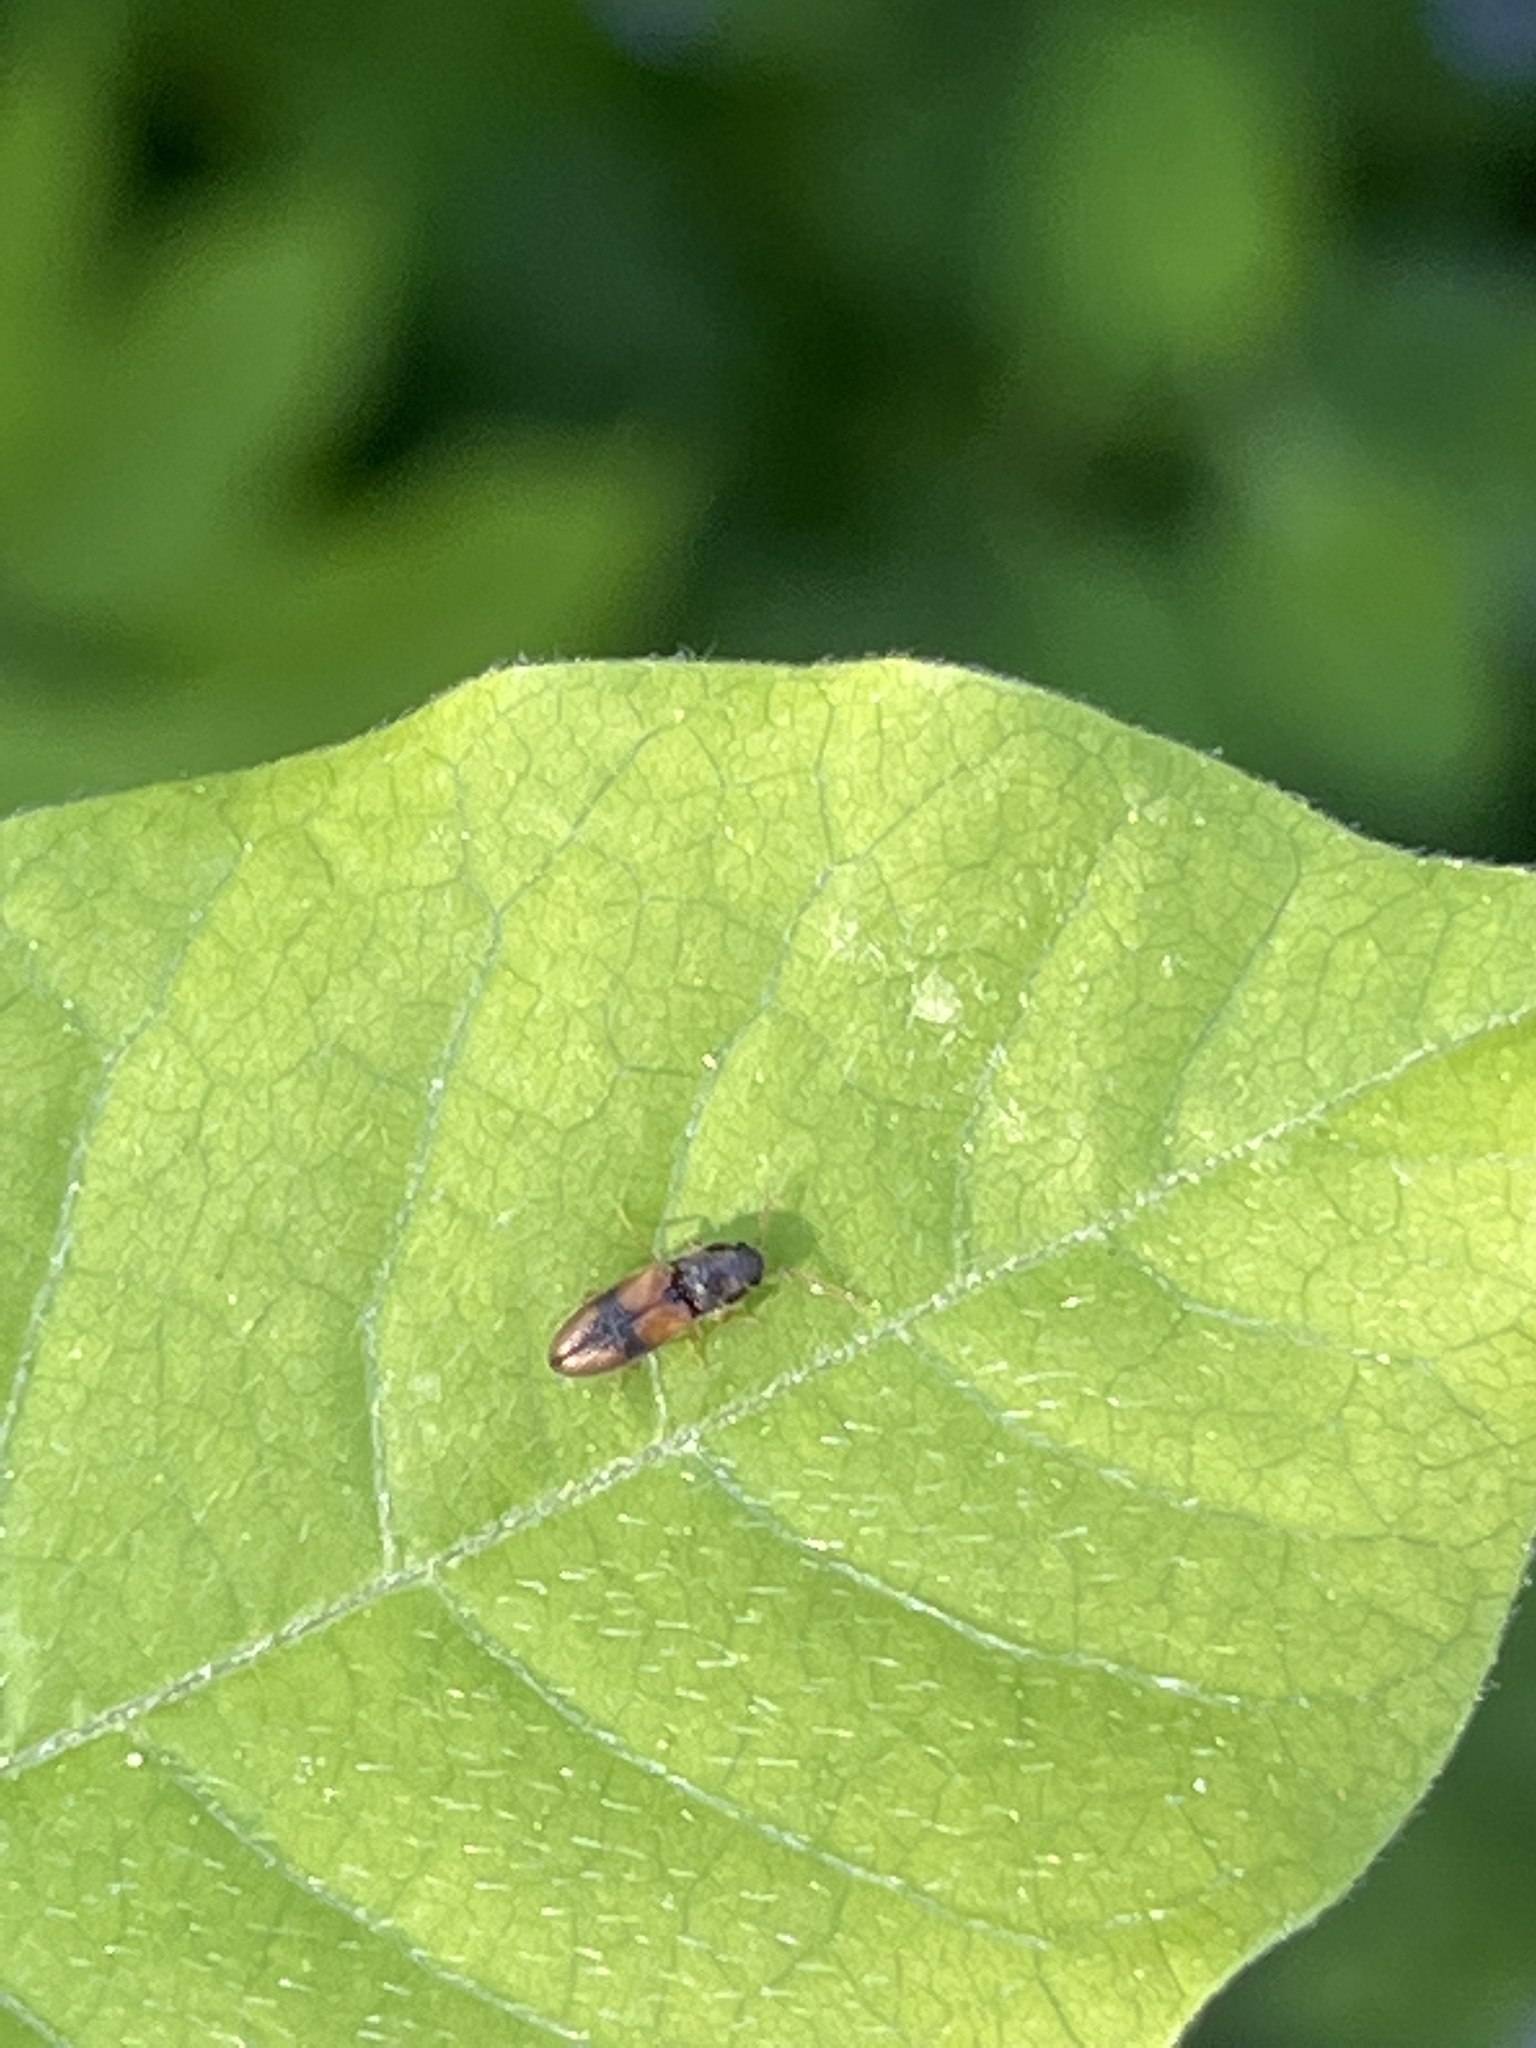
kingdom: Animalia
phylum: Arthropoda
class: Insecta
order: Coleoptera
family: Elateridae
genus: Horistonotus
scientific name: Horistonotus curiatus
